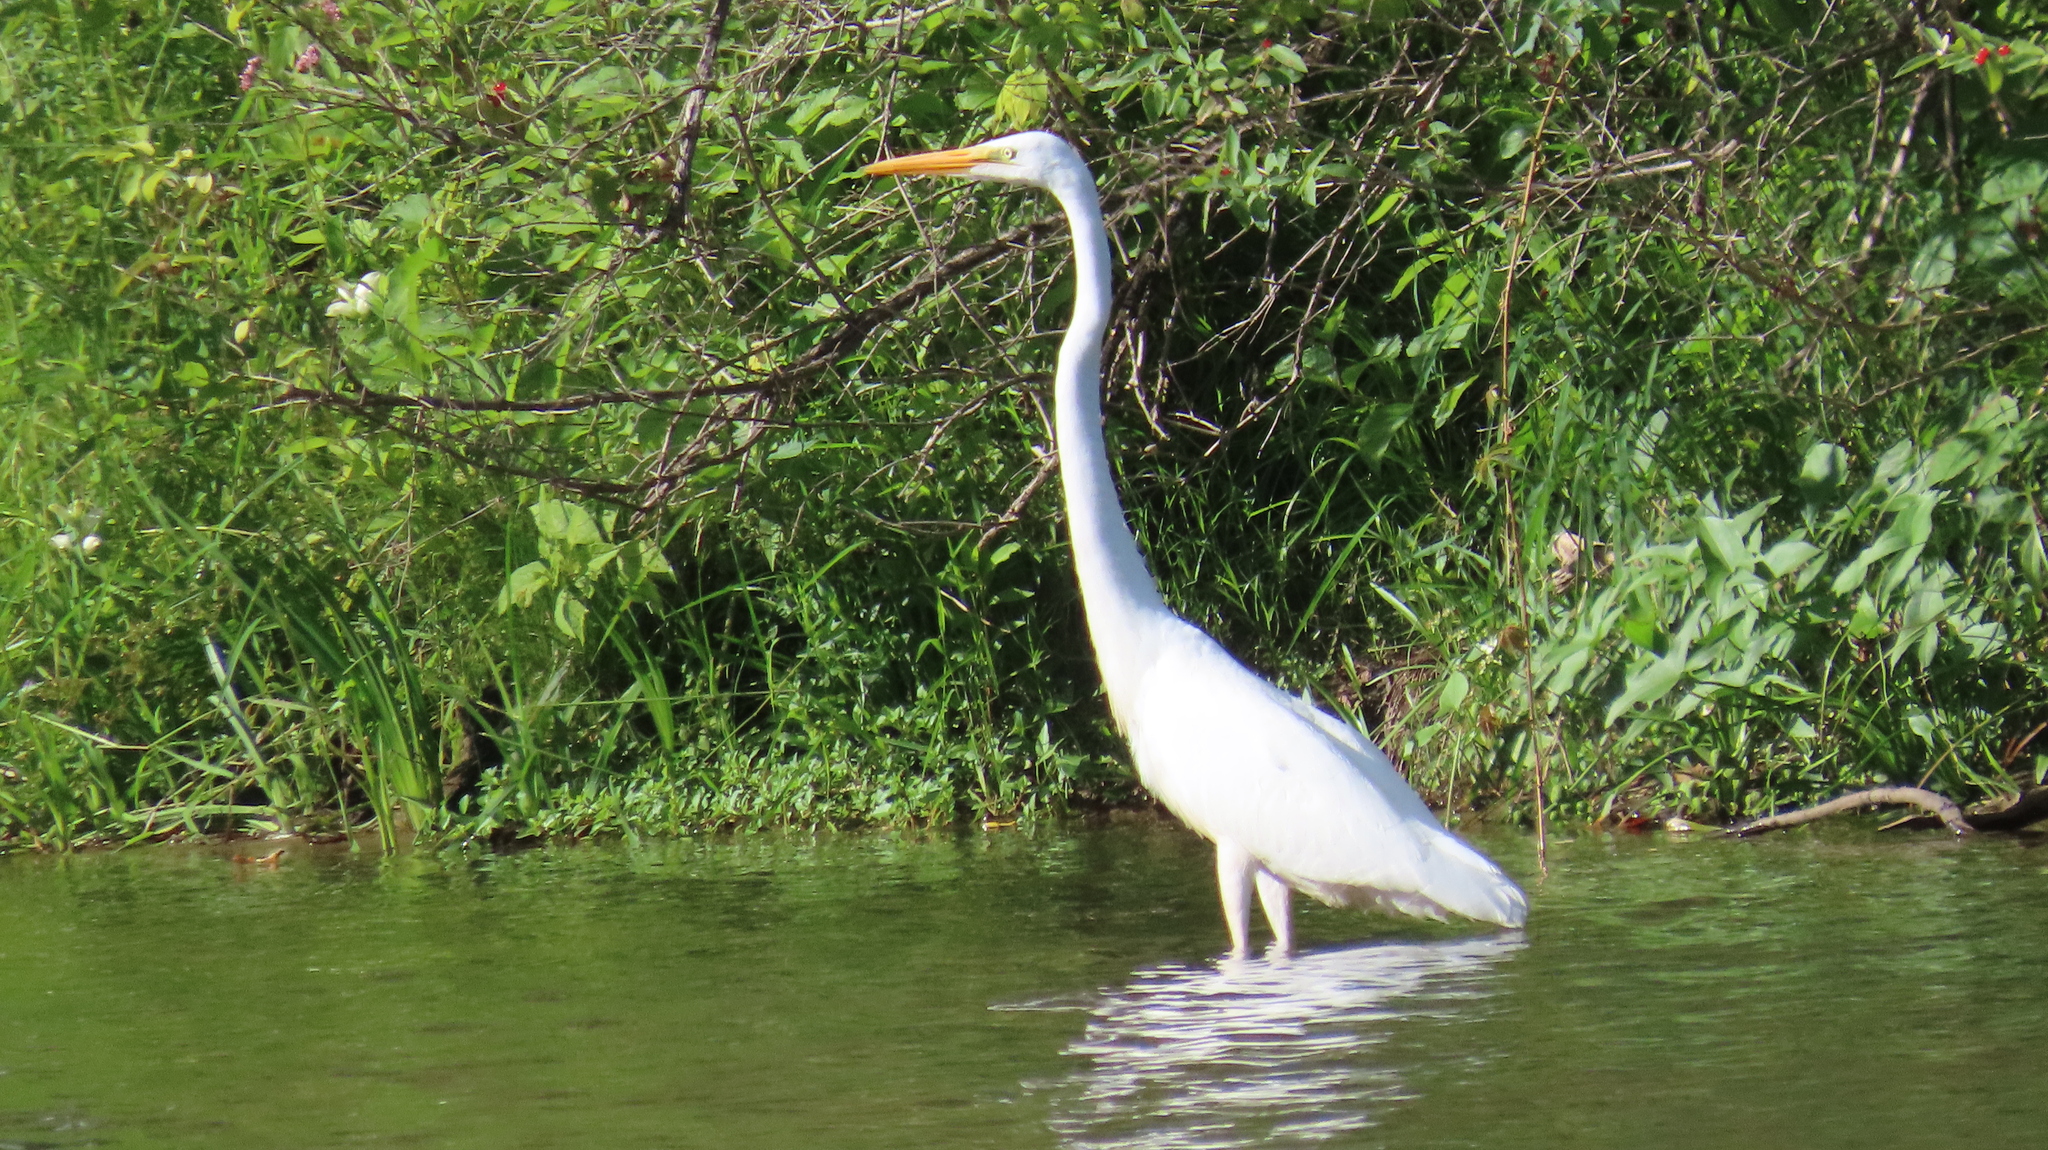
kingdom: Animalia
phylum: Chordata
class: Aves
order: Pelecaniformes
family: Ardeidae
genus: Ardea
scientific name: Ardea alba
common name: Great egret
